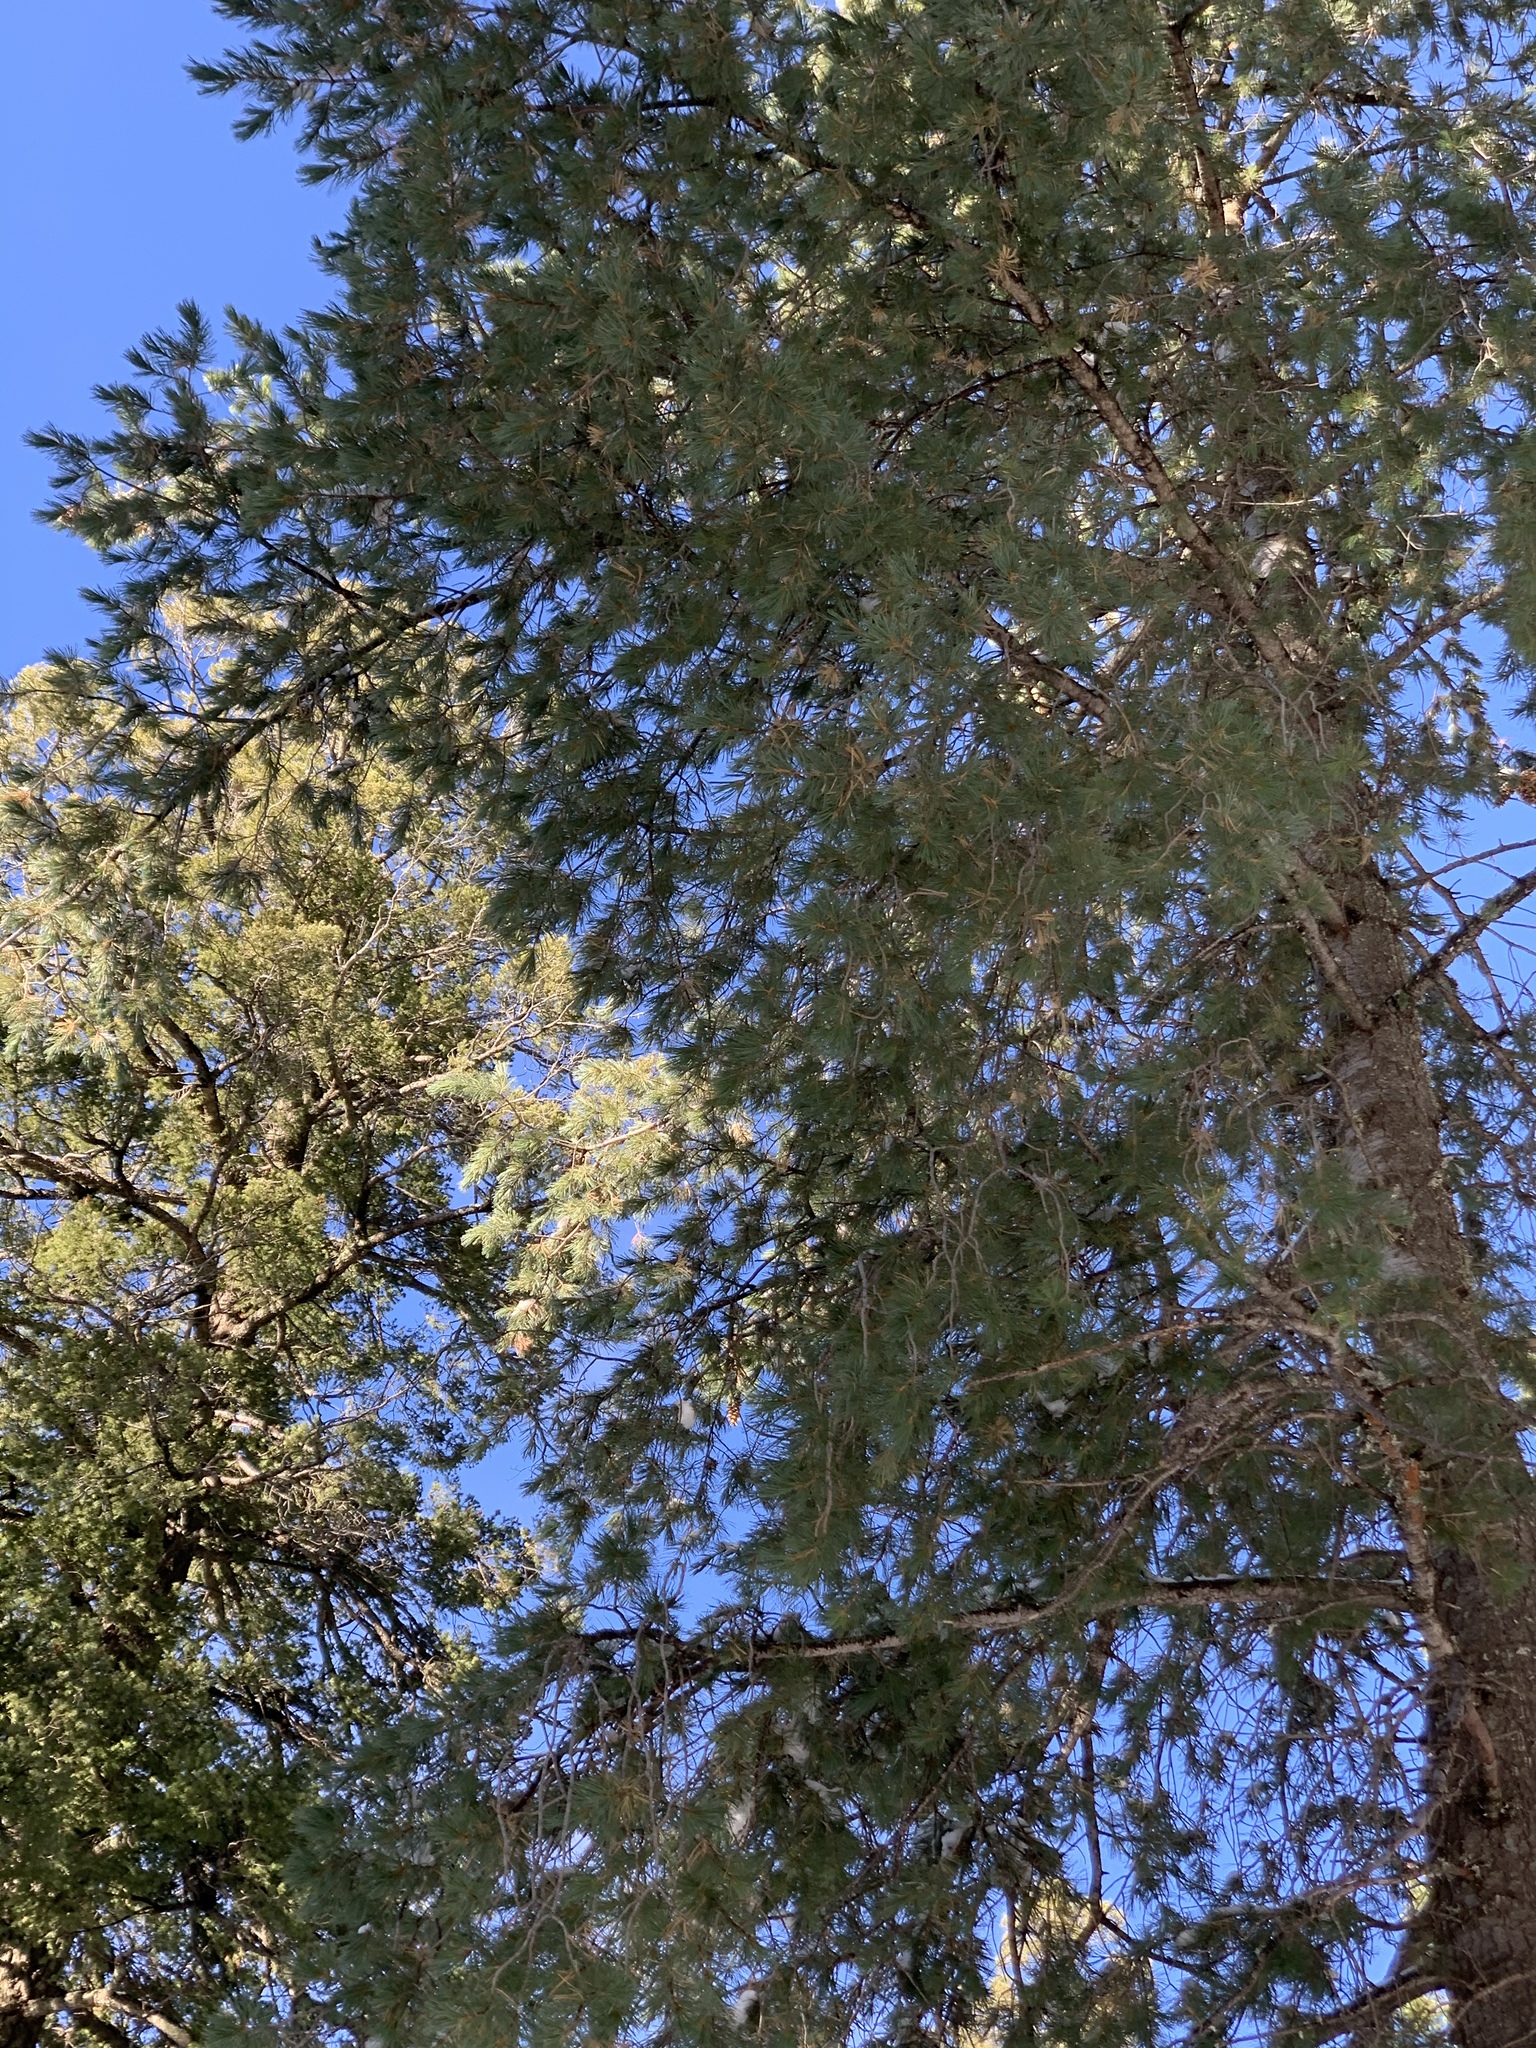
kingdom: Plantae
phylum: Tracheophyta
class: Pinopsida
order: Pinales
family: Pinaceae
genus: Pinus
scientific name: Pinus strobiformis
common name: Southwestern white pine
